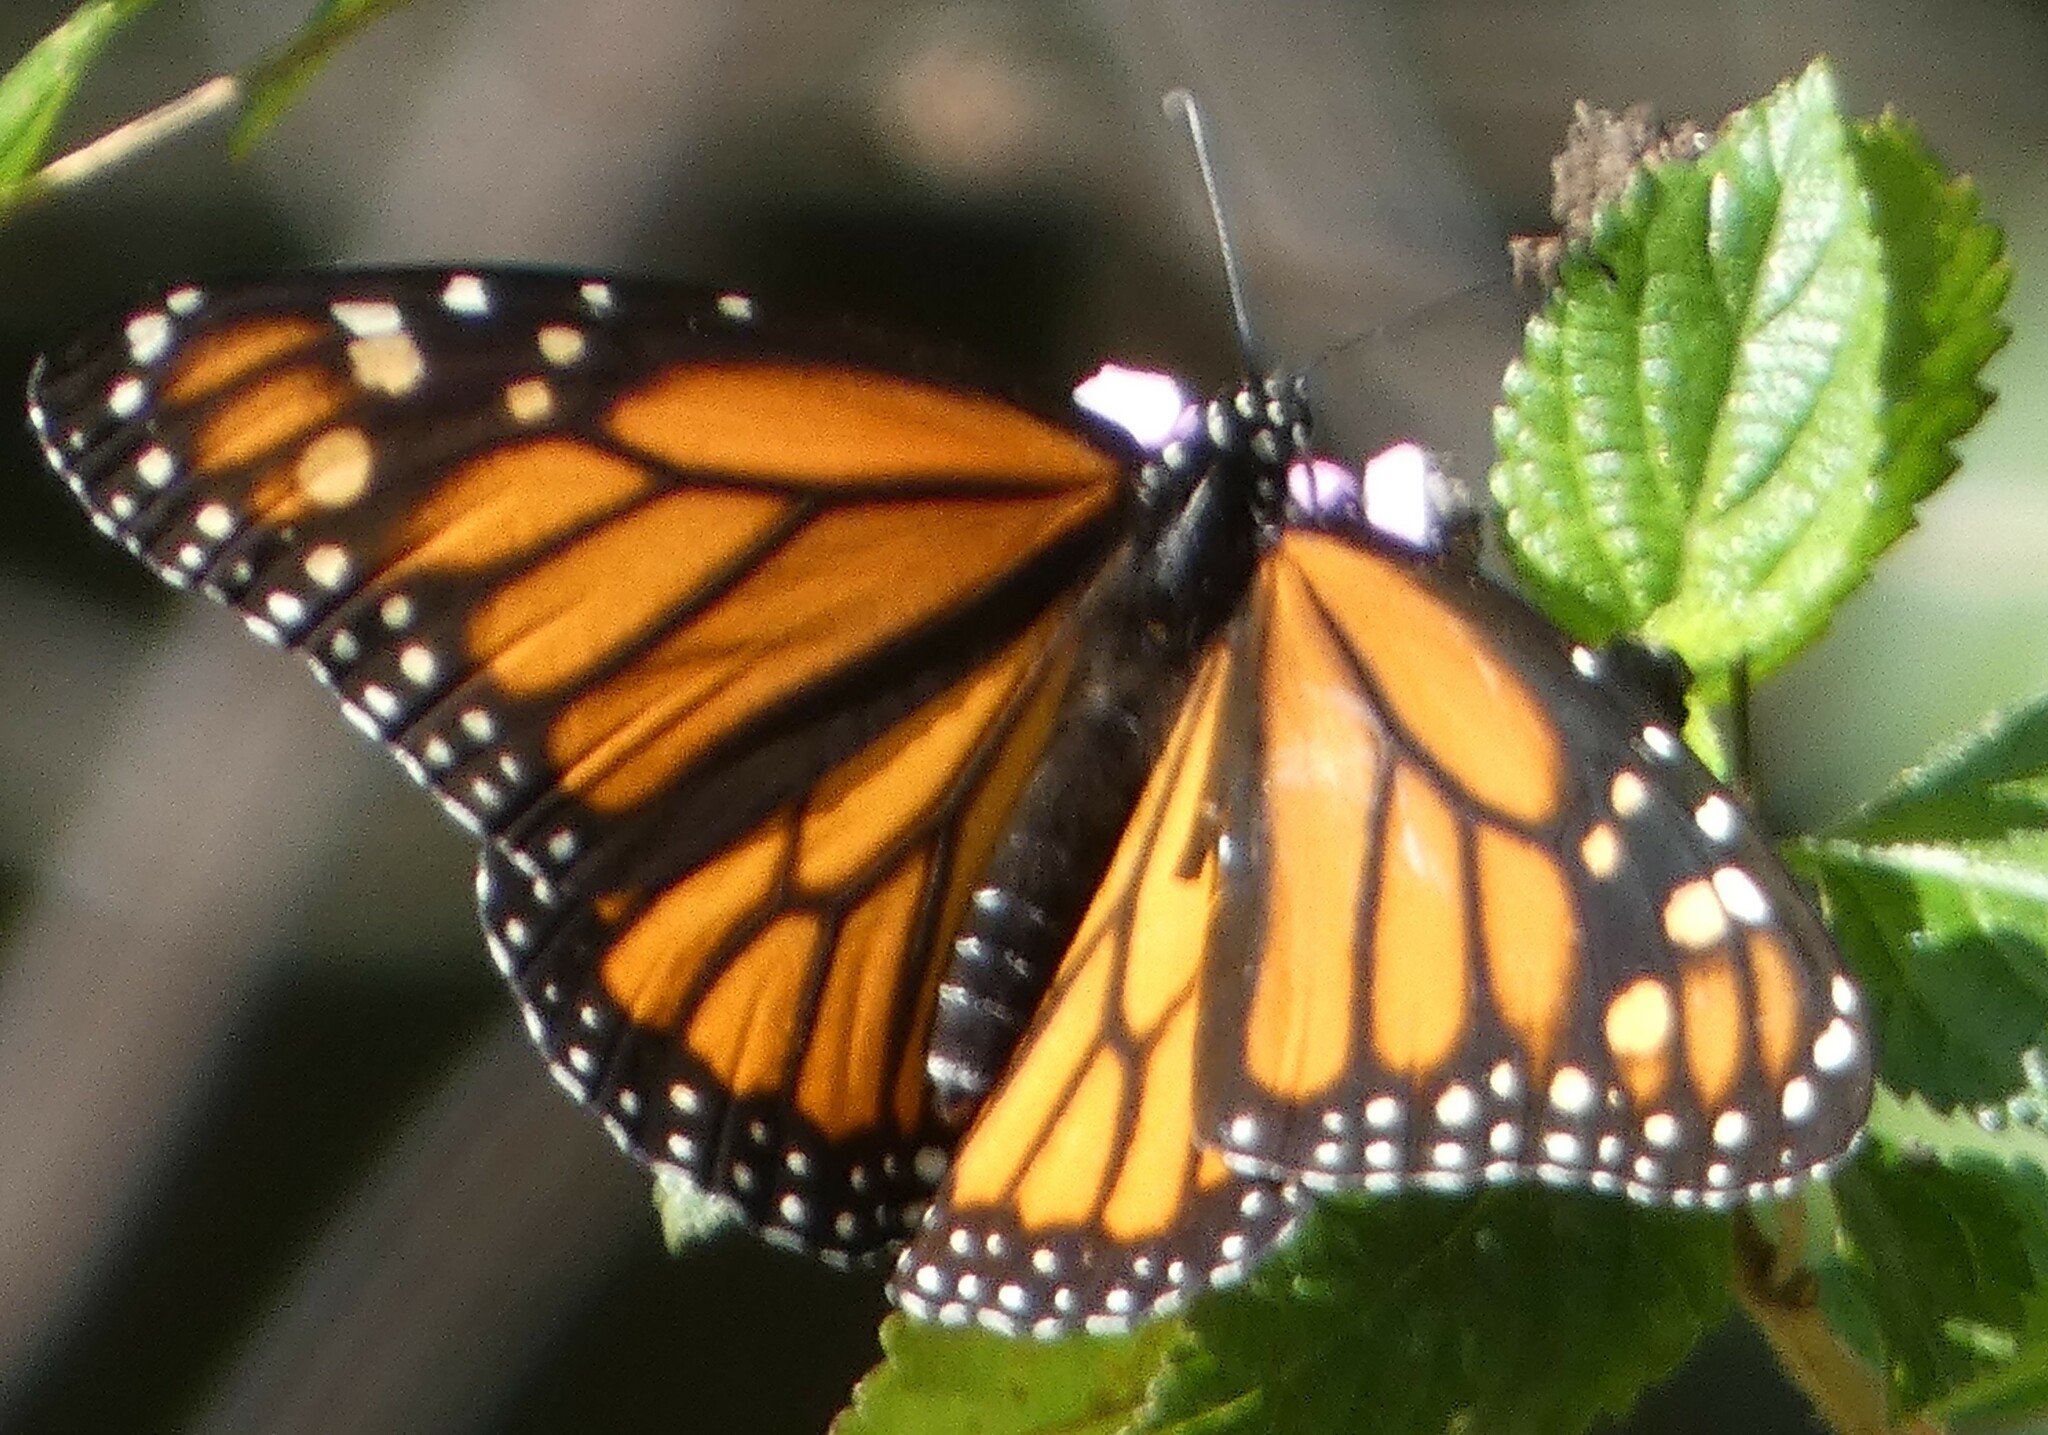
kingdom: Animalia
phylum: Arthropoda
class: Insecta
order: Lepidoptera
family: Nymphalidae
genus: Danaus
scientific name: Danaus plexippus
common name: Monarch
